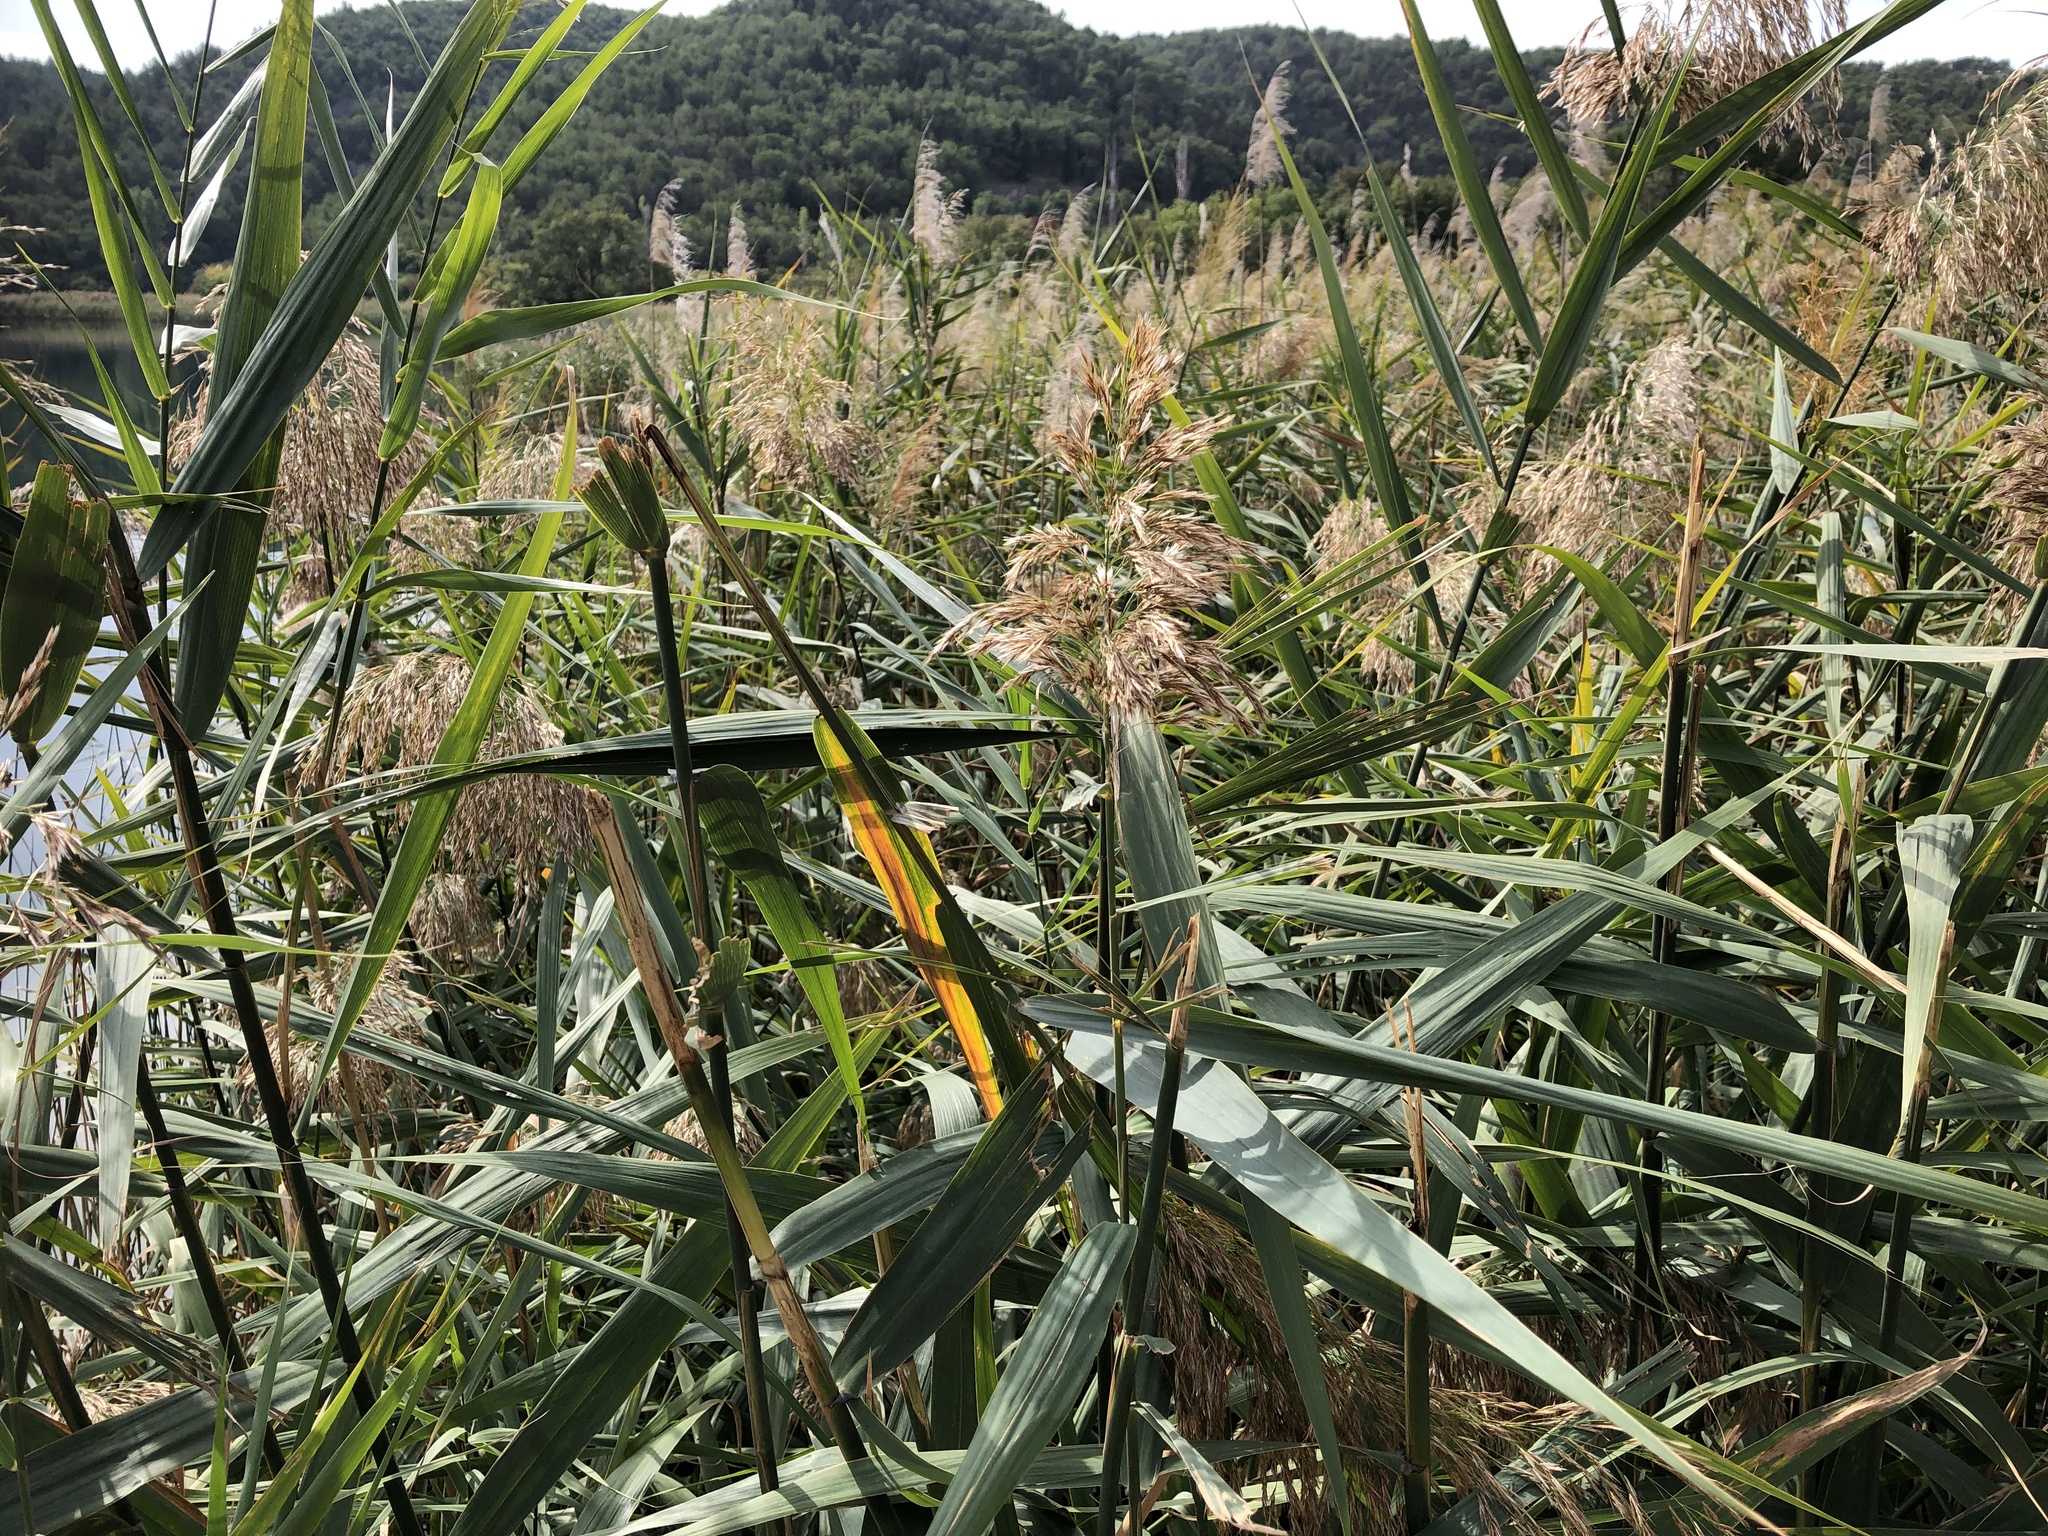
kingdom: Plantae
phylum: Tracheophyta
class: Liliopsida
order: Poales
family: Poaceae
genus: Phragmites
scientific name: Phragmites australis
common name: Common reed
